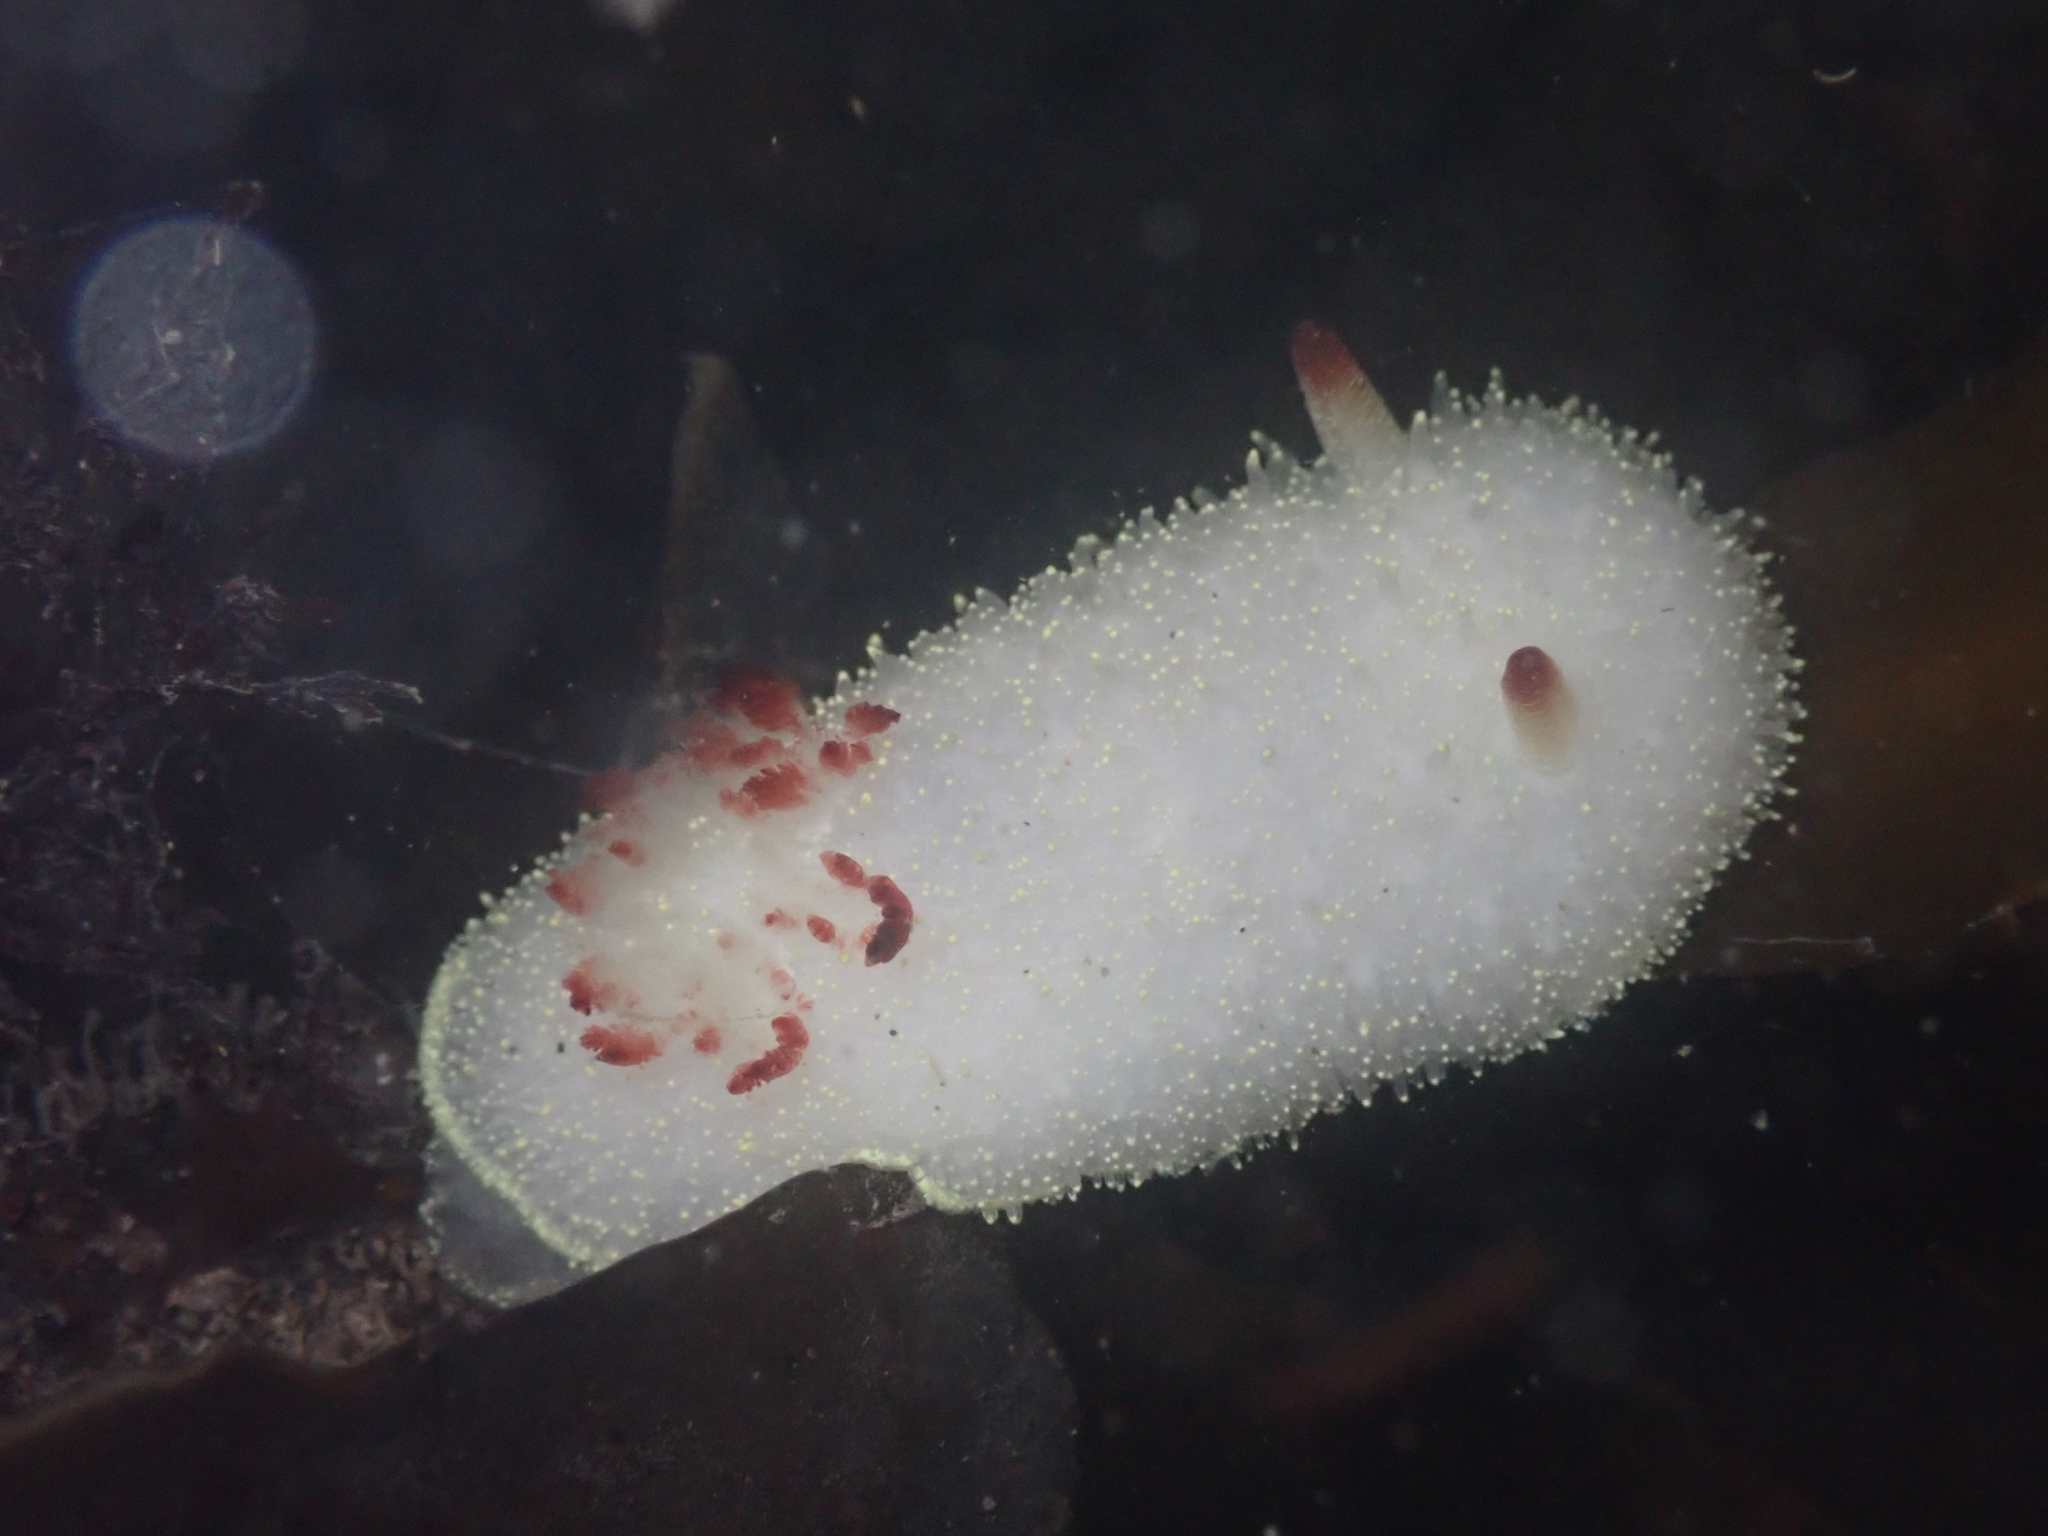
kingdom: Animalia
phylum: Mollusca
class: Gastropoda
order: Nudibranchia
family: Onchidorididae
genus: Acanthodoris
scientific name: Acanthodoris nanaimoensis
